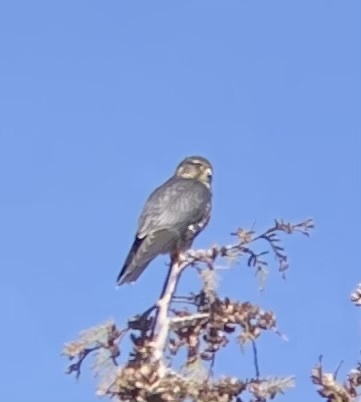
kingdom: Animalia
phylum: Chordata
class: Aves
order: Falconiformes
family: Falconidae
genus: Falco
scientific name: Falco columbarius
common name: Merlin
